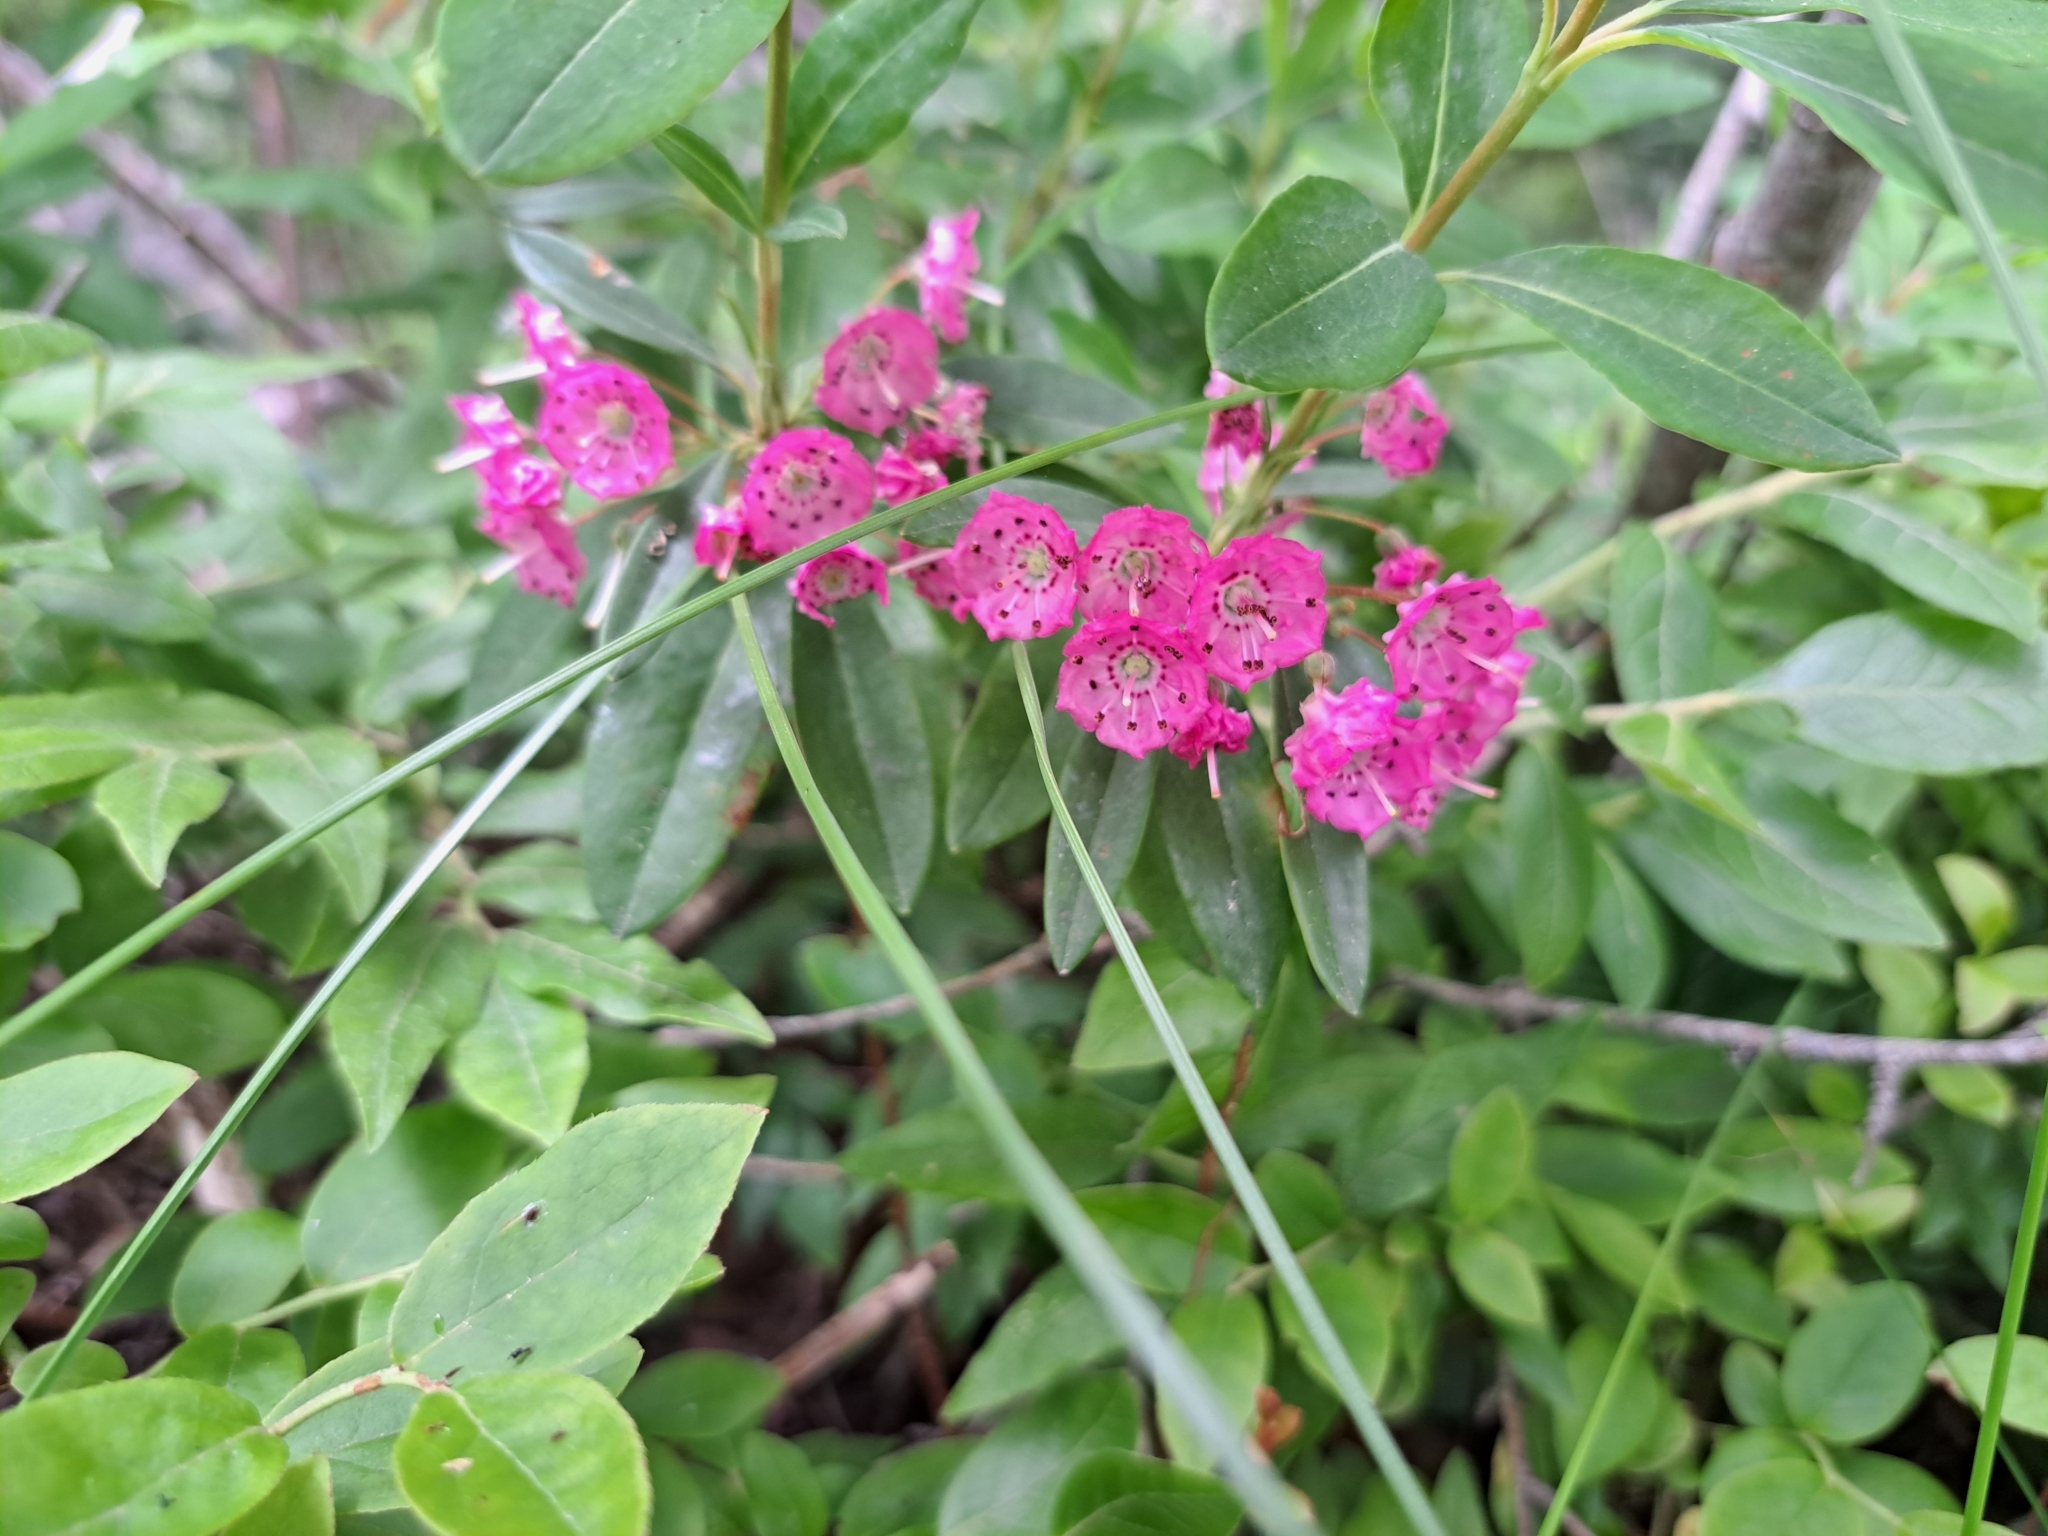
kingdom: Plantae
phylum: Tracheophyta
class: Magnoliopsida
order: Ericales
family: Ericaceae
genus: Kalmia
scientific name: Kalmia angustifolia
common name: Sheep-laurel
